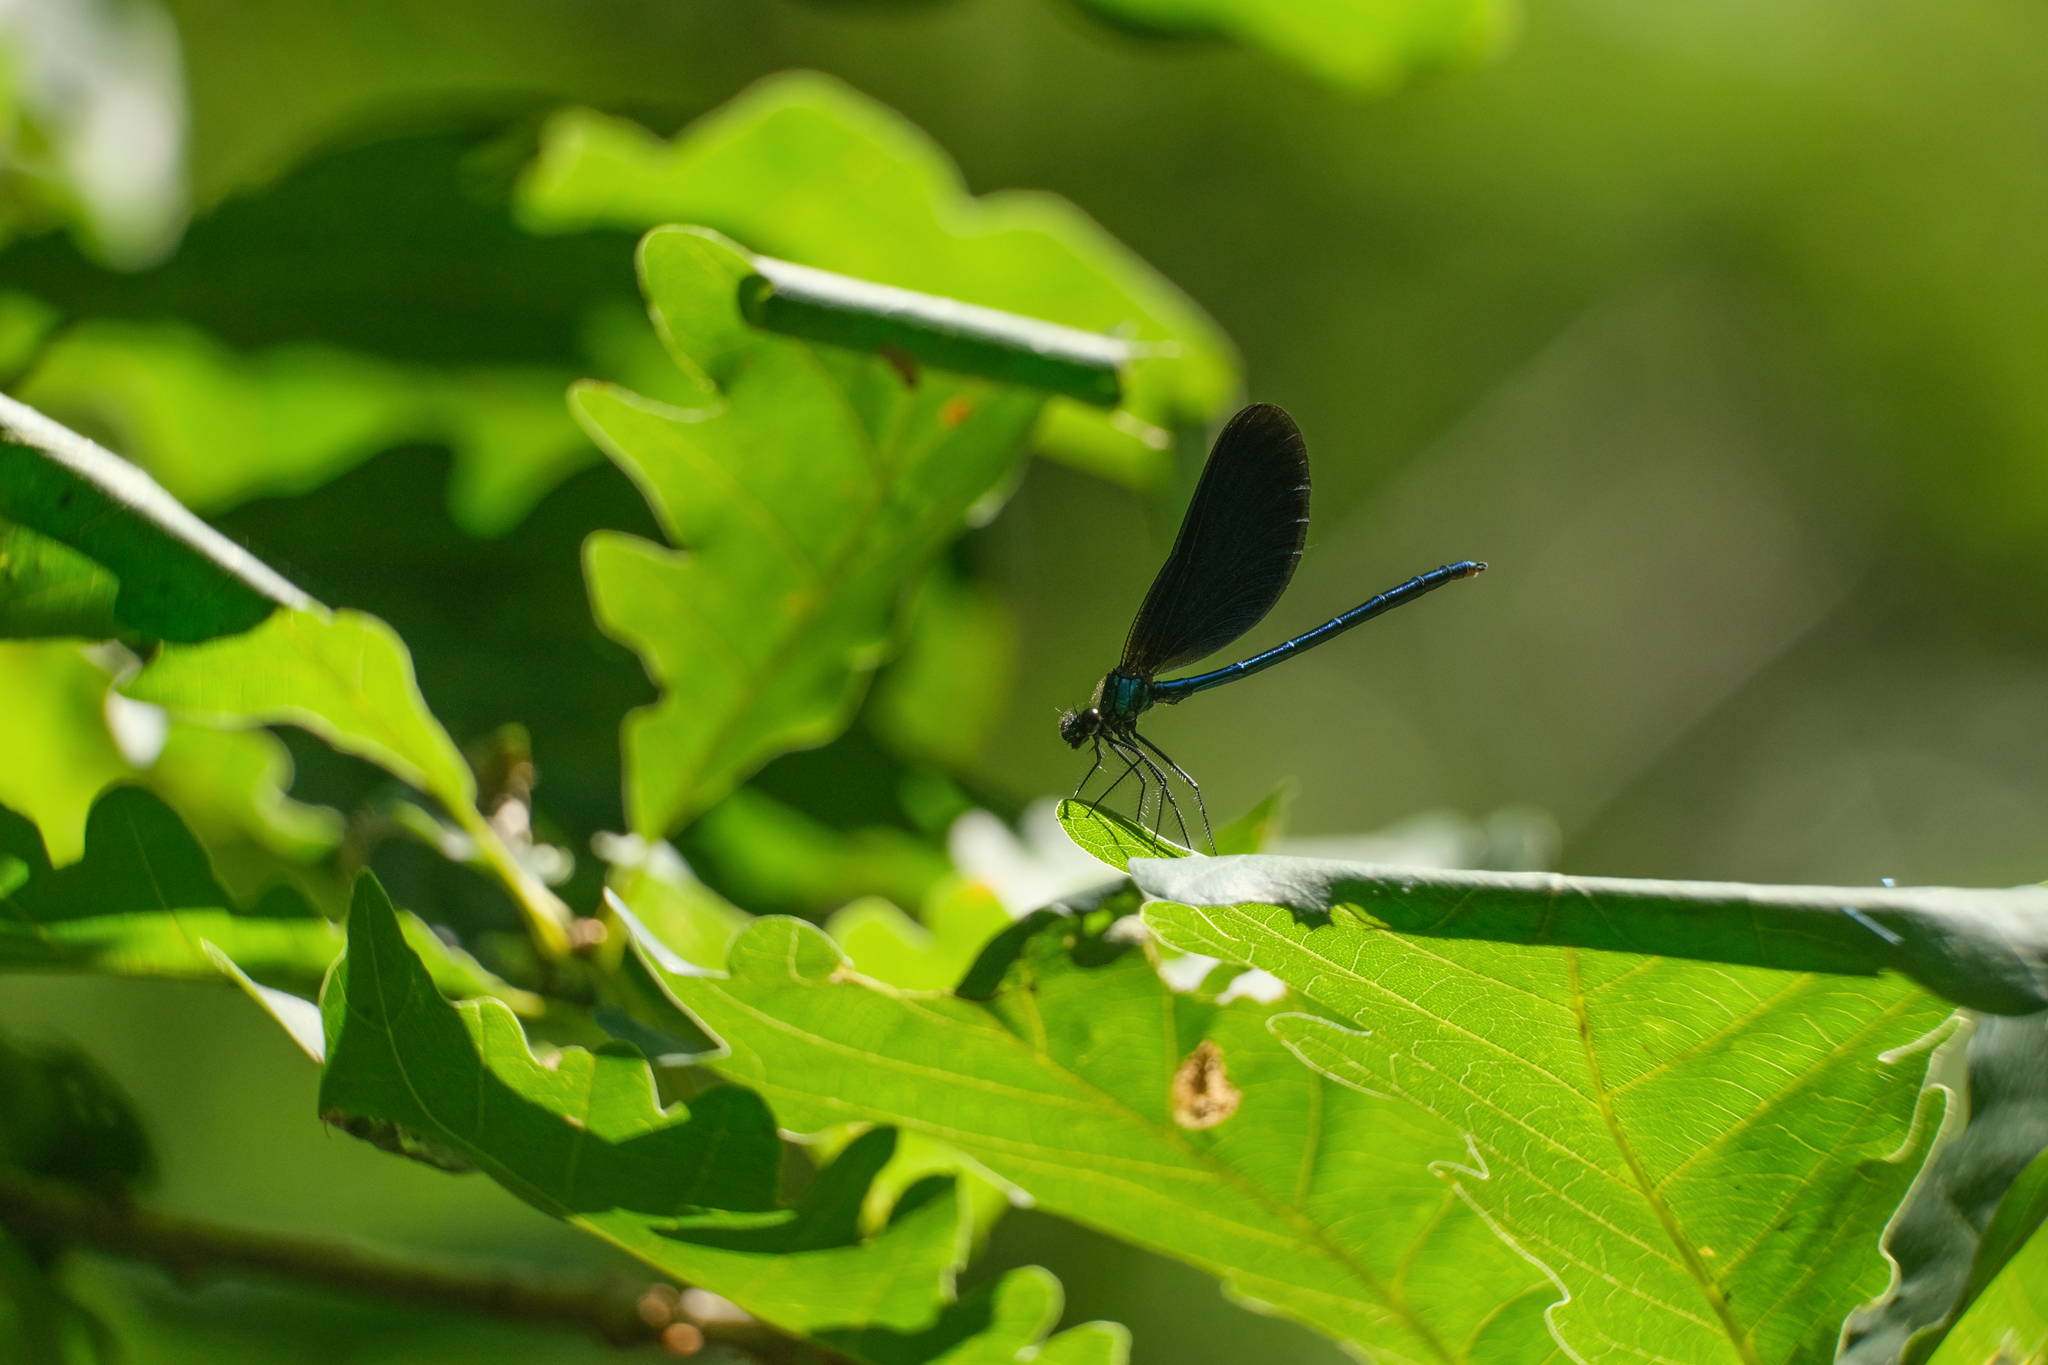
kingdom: Animalia
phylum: Arthropoda
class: Insecta
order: Odonata
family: Calopterygidae
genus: Calopteryx
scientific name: Calopteryx virgo
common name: Beautiful demoiselle
